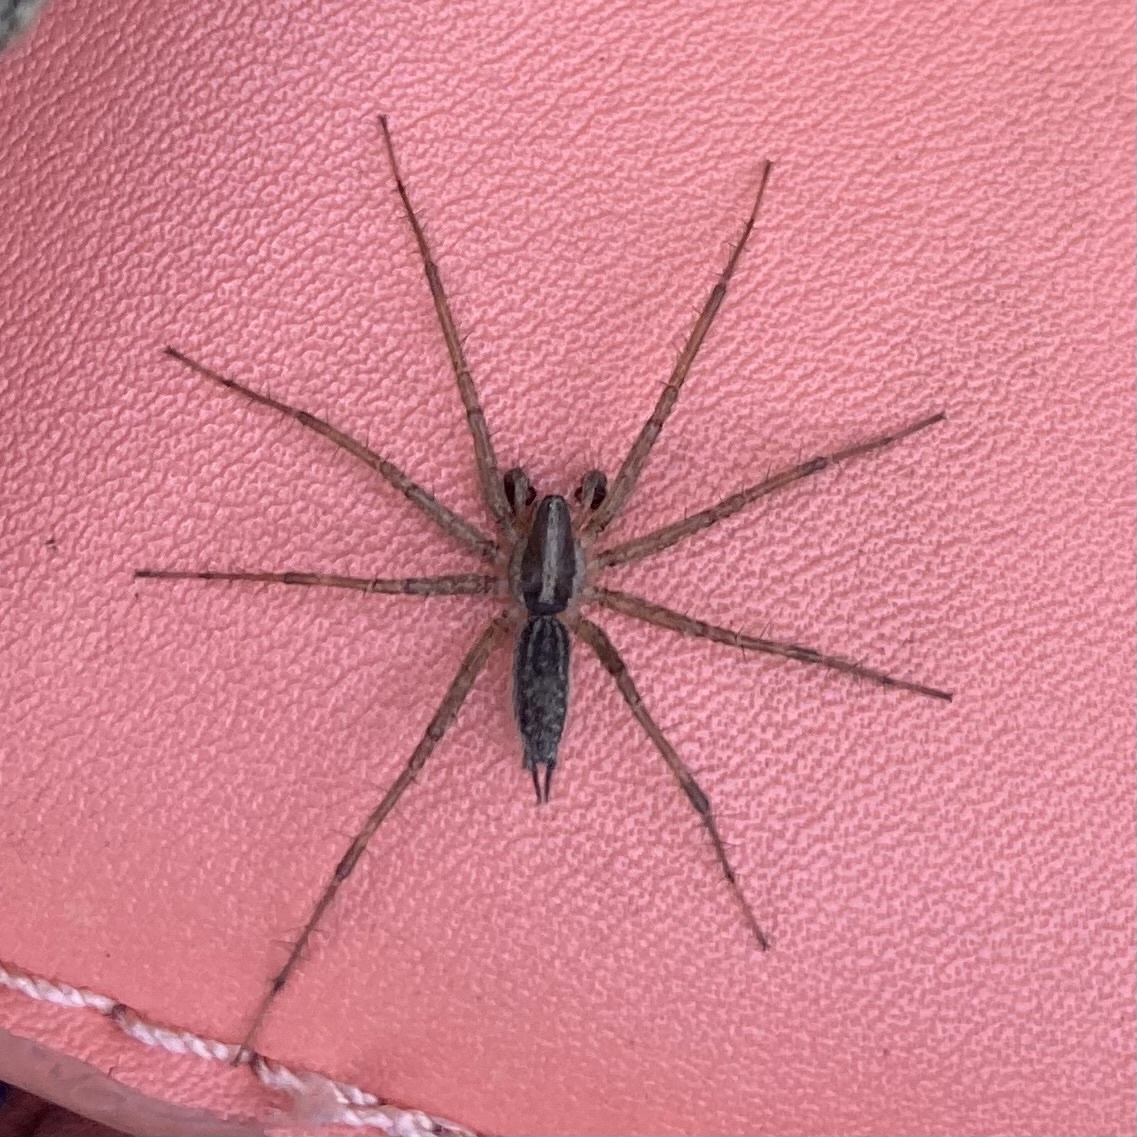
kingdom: Animalia
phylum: Arthropoda
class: Arachnida
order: Araneae
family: Agelenidae
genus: Agelenopsis
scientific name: Agelenopsis
